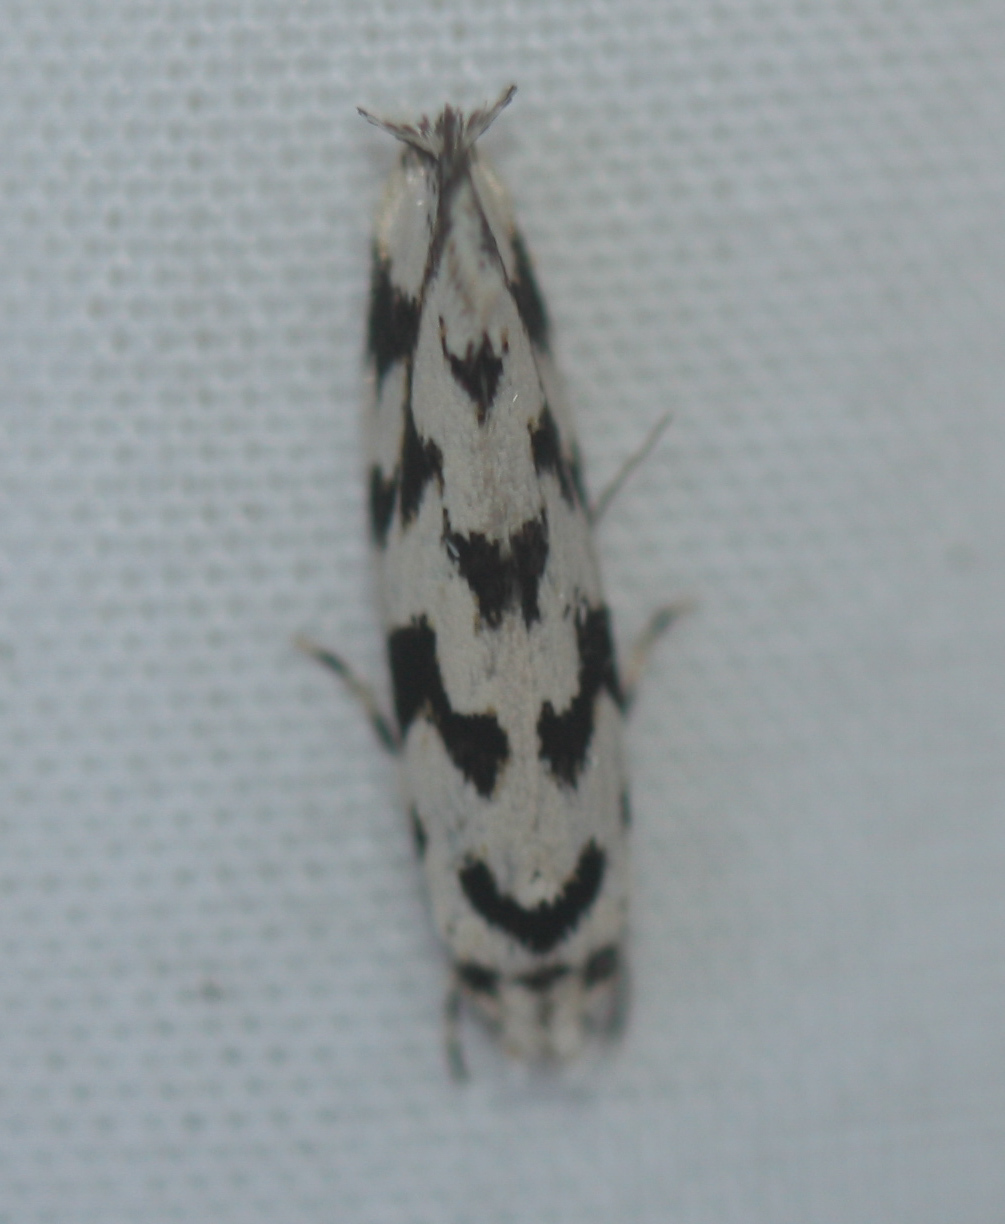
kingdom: Animalia
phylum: Arthropoda
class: Insecta
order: Lepidoptera
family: Tineidae
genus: Erechthias
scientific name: Erechthias simulans
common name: Fungus moth
